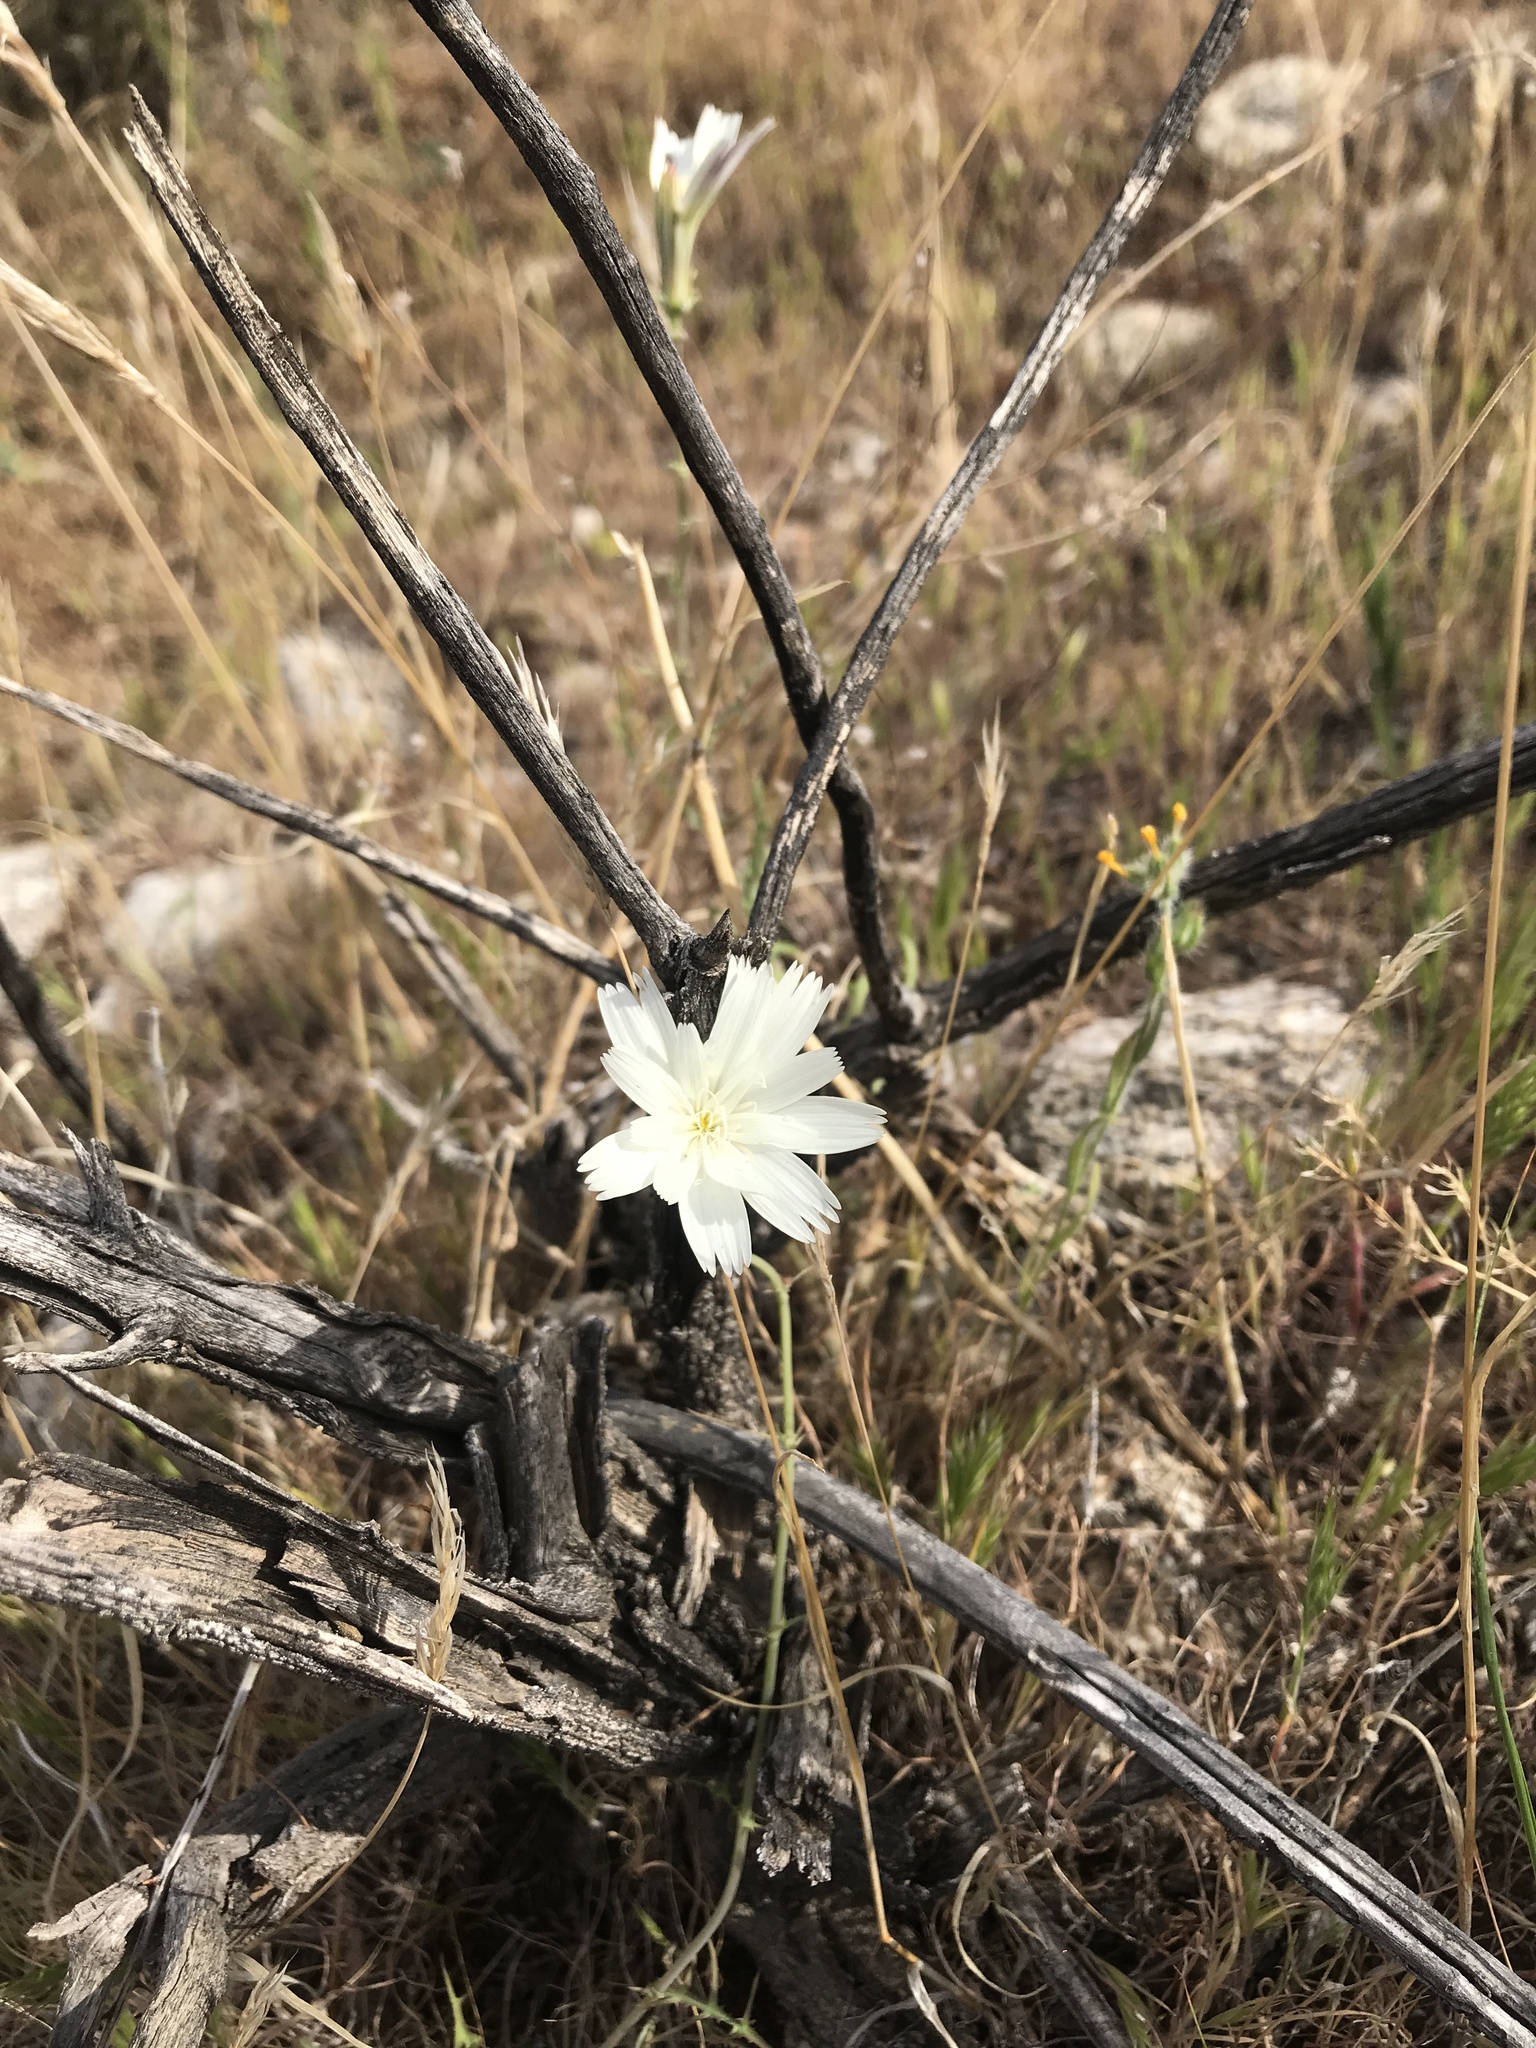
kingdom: Plantae
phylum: Tracheophyta
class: Magnoliopsida
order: Asterales
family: Asteraceae
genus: Rafinesquia
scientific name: Rafinesquia neomexicana
